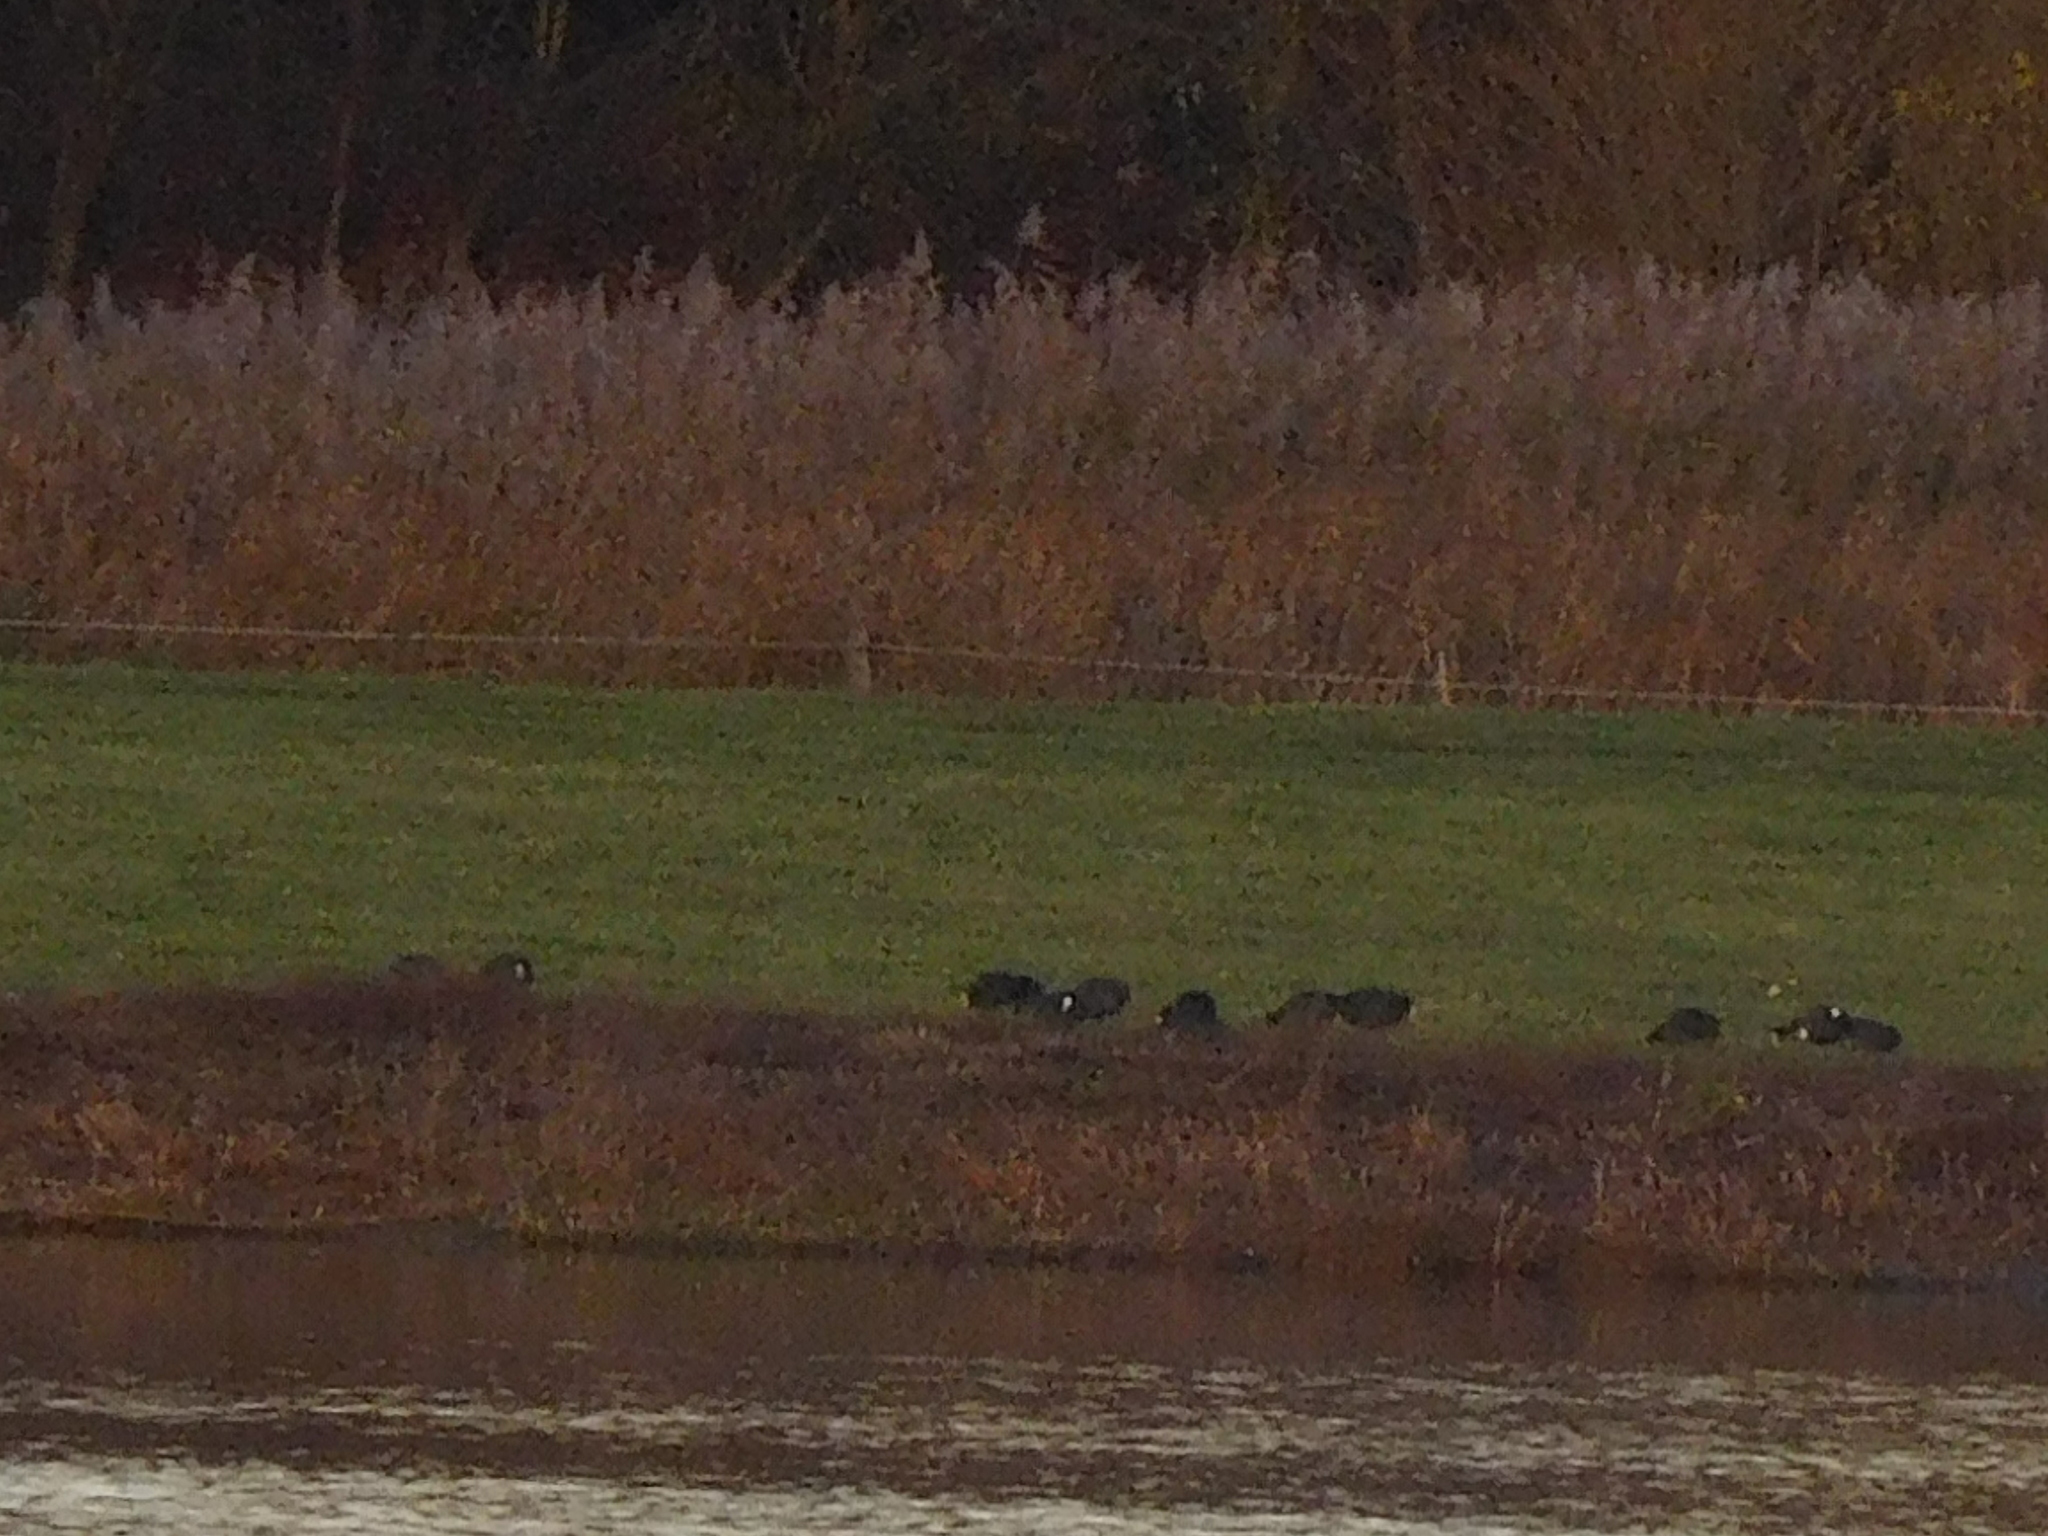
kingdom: Animalia
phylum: Chordata
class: Aves
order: Gruiformes
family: Rallidae
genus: Fulica
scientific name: Fulica atra
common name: Eurasian coot
